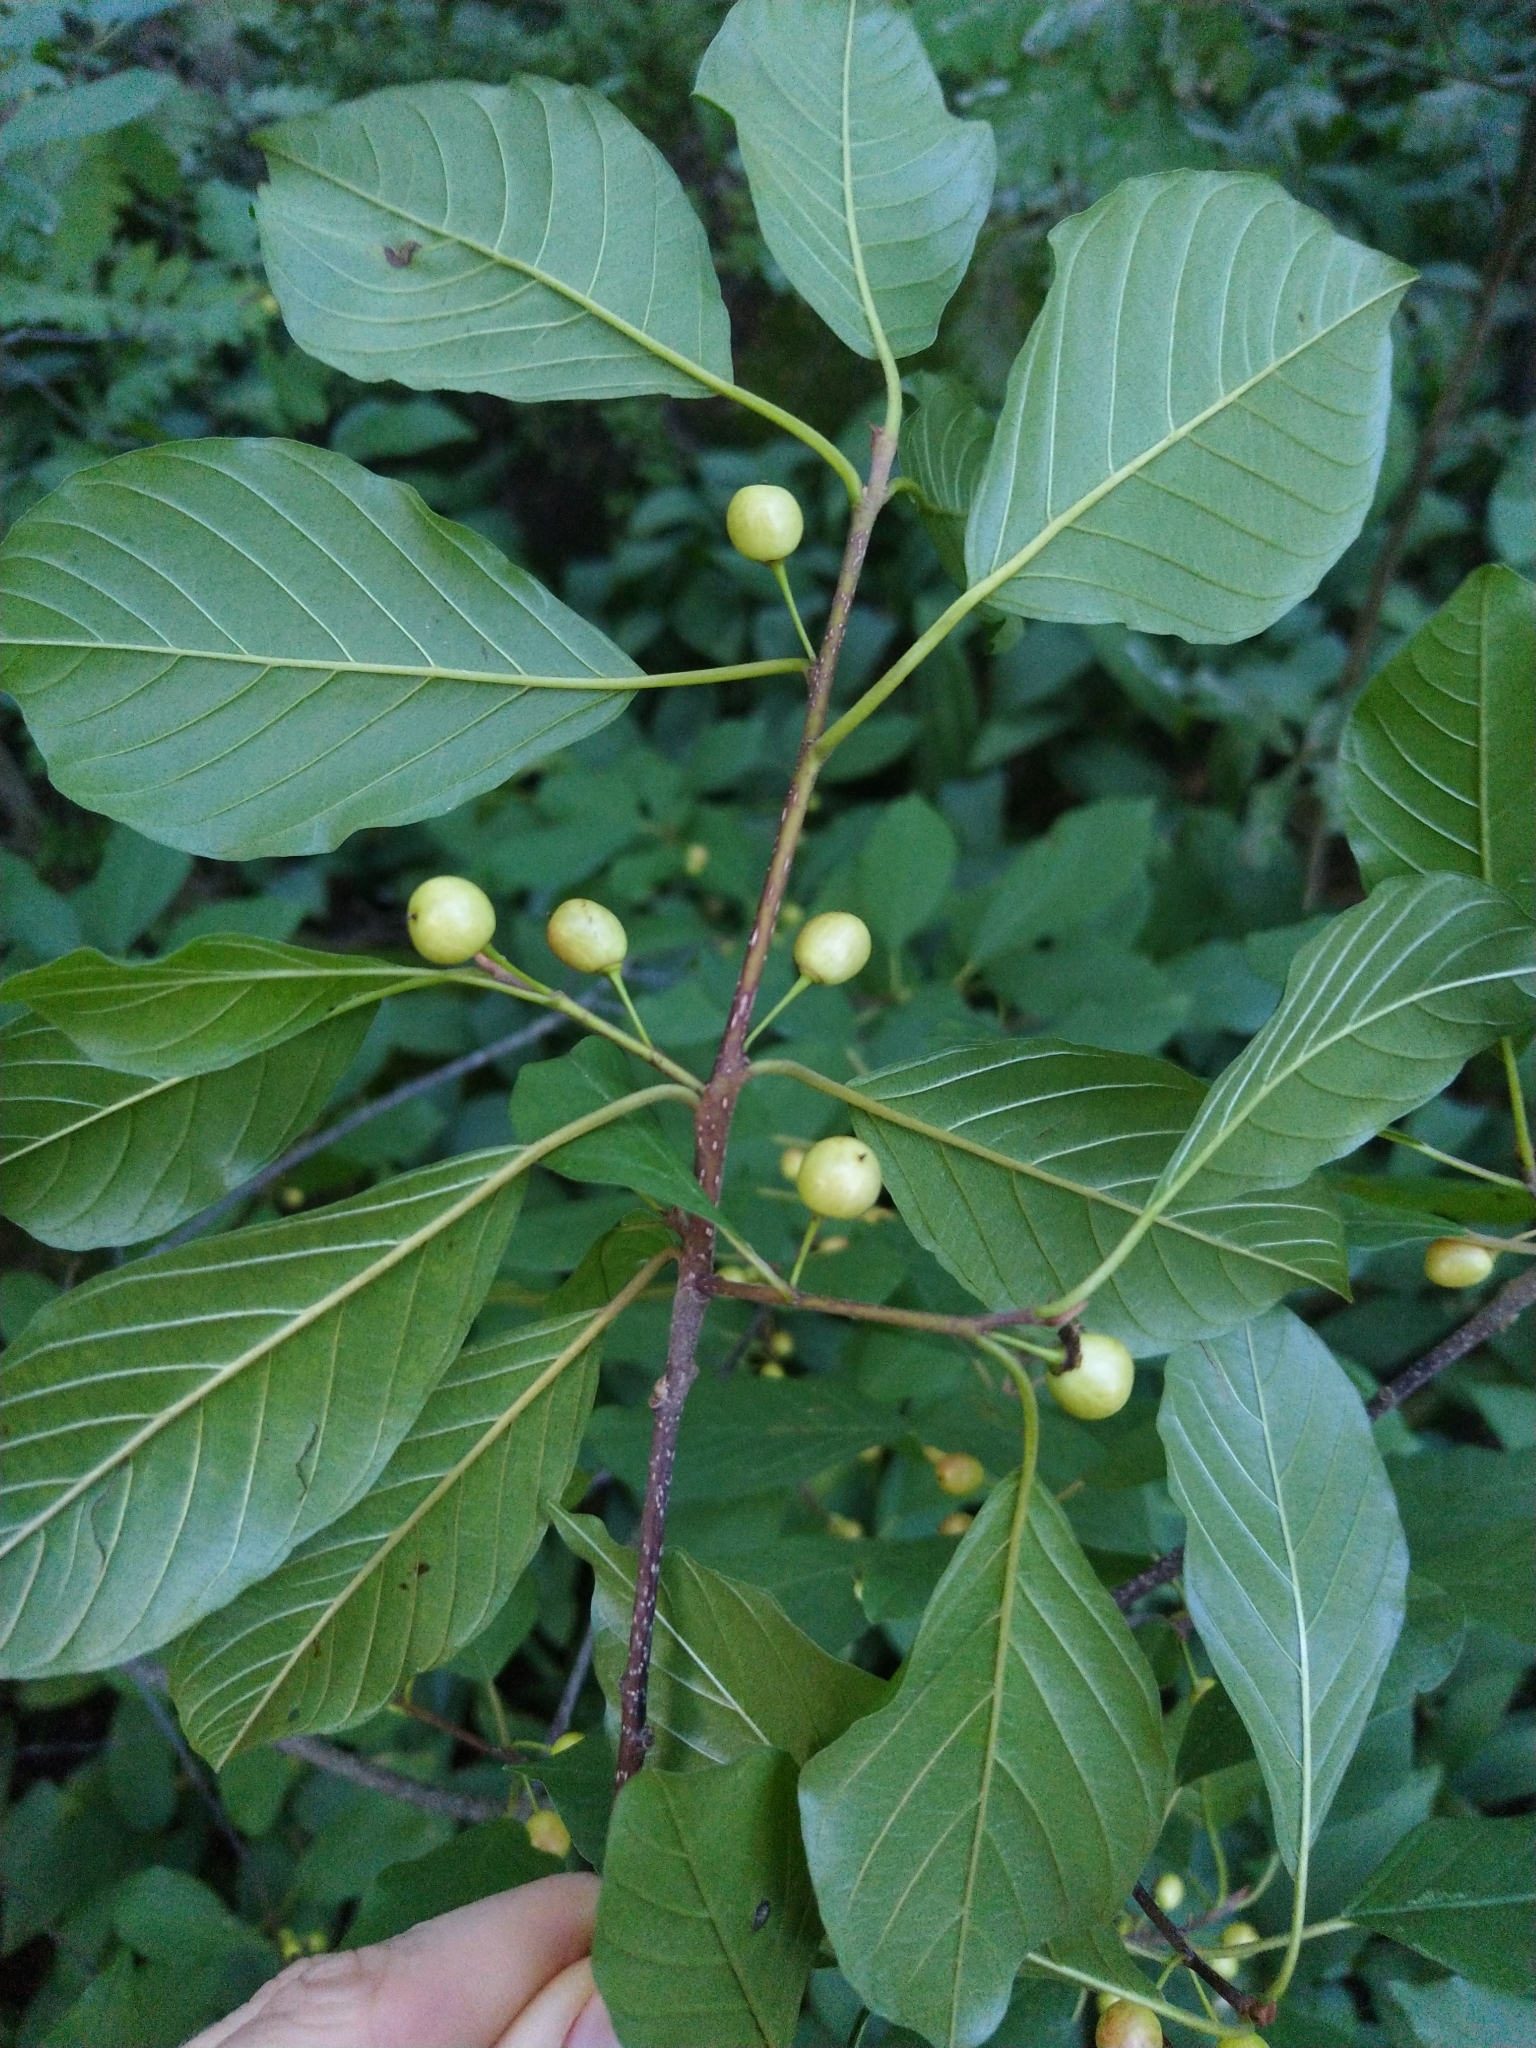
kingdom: Plantae
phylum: Tracheophyta
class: Magnoliopsida
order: Rosales
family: Rhamnaceae
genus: Frangula
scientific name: Frangula alnus
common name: Alder buckthorn
